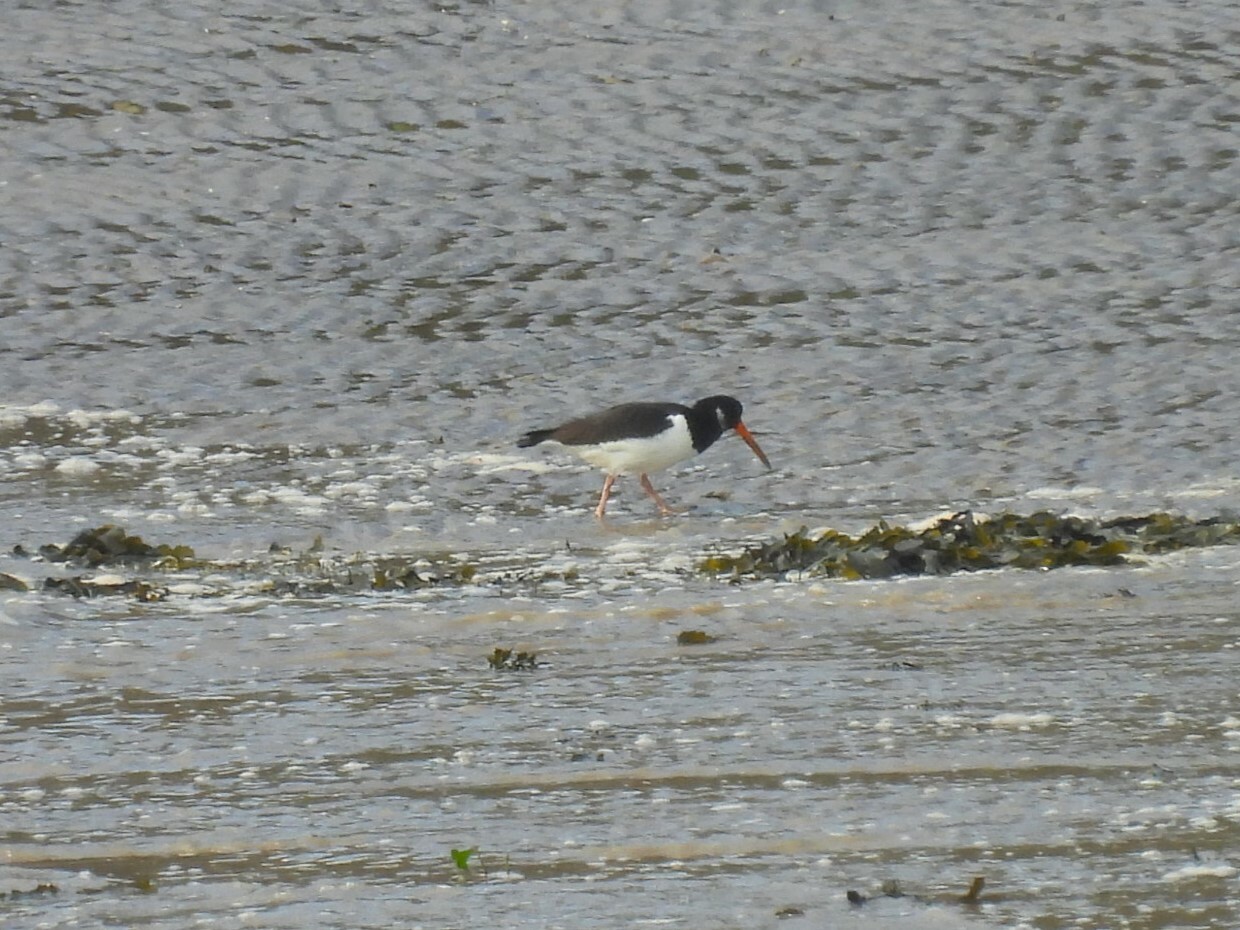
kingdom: Animalia
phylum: Chordata
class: Aves
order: Charadriiformes
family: Haematopodidae
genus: Haematopus
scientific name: Haematopus ostralegus
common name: Eurasian oystercatcher
